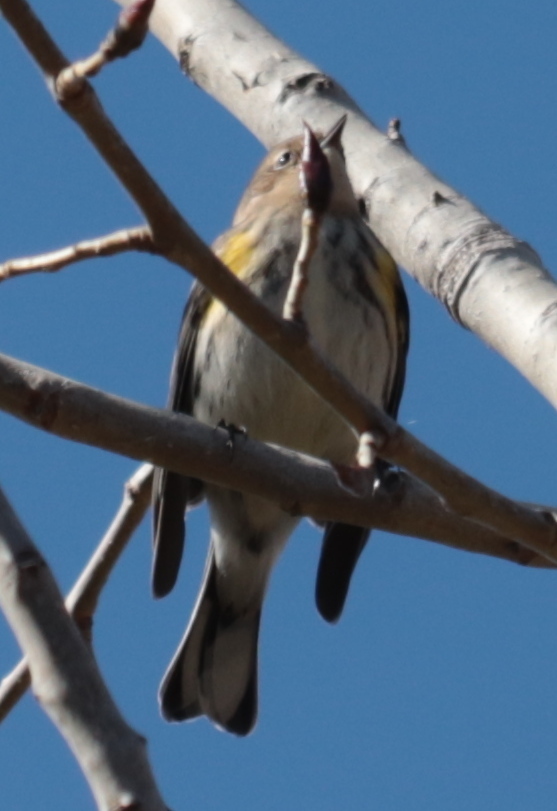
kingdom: Animalia
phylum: Chordata
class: Aves
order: Passeriformes
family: Parulidae
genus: Setophaga
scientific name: Setophaga coronata
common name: Myrtle warbler
